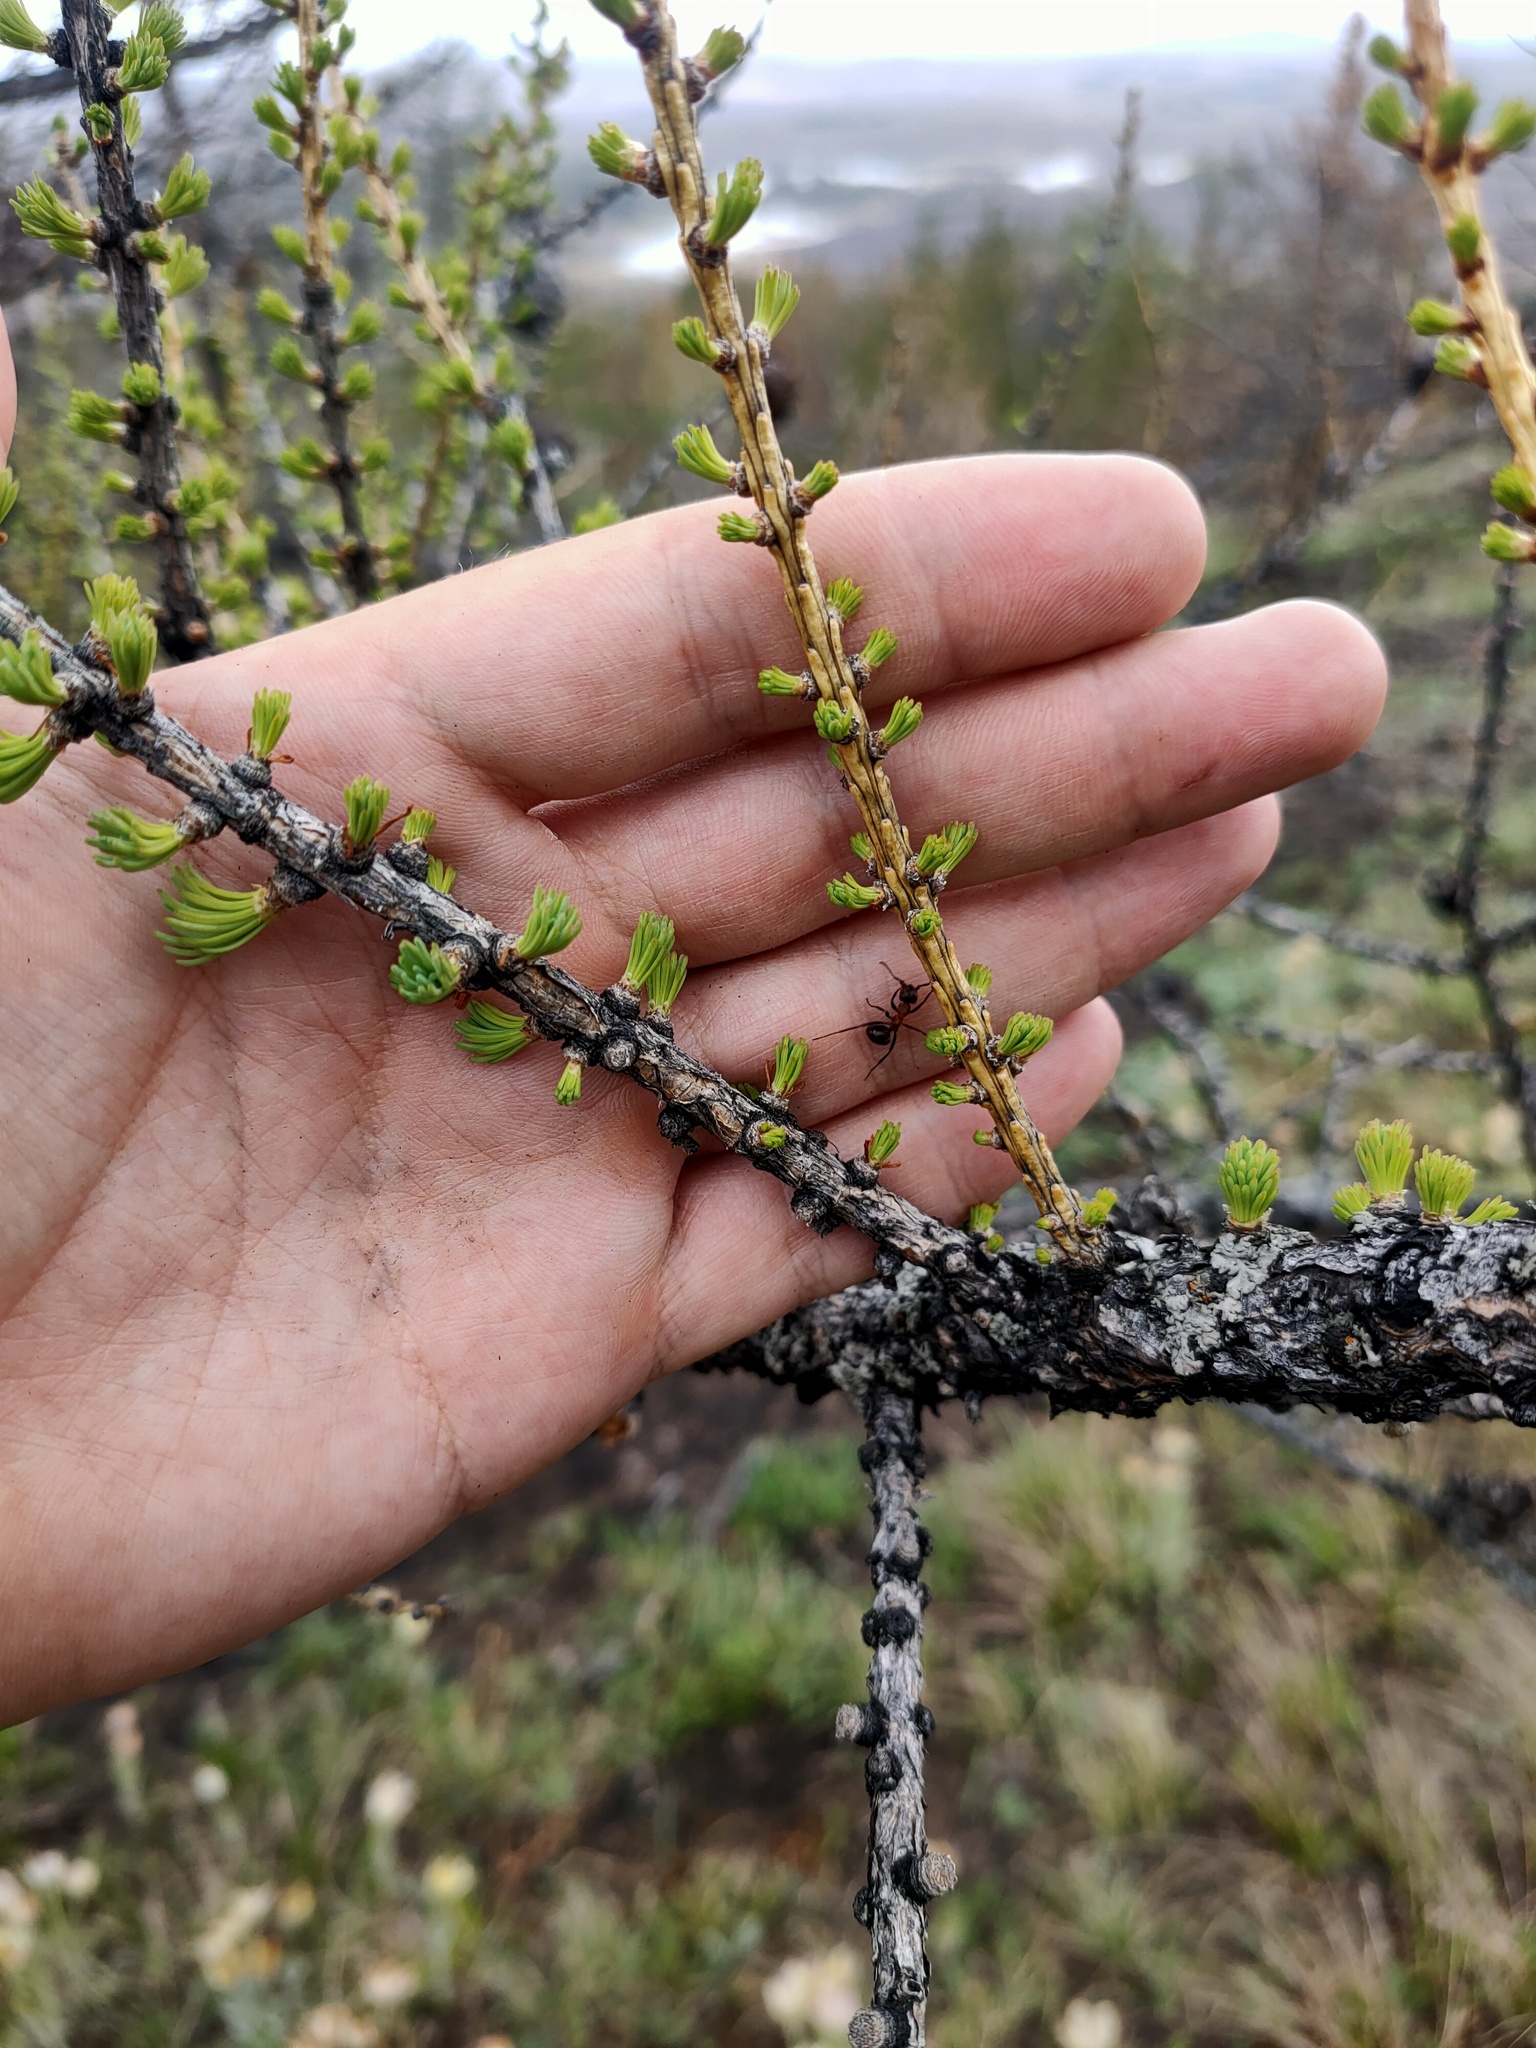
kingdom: Plantae
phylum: Tracheophyta
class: Pinopsida
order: Pinales
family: Pinaceae
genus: Larix
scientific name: Larix sibirica
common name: Siberian larch
